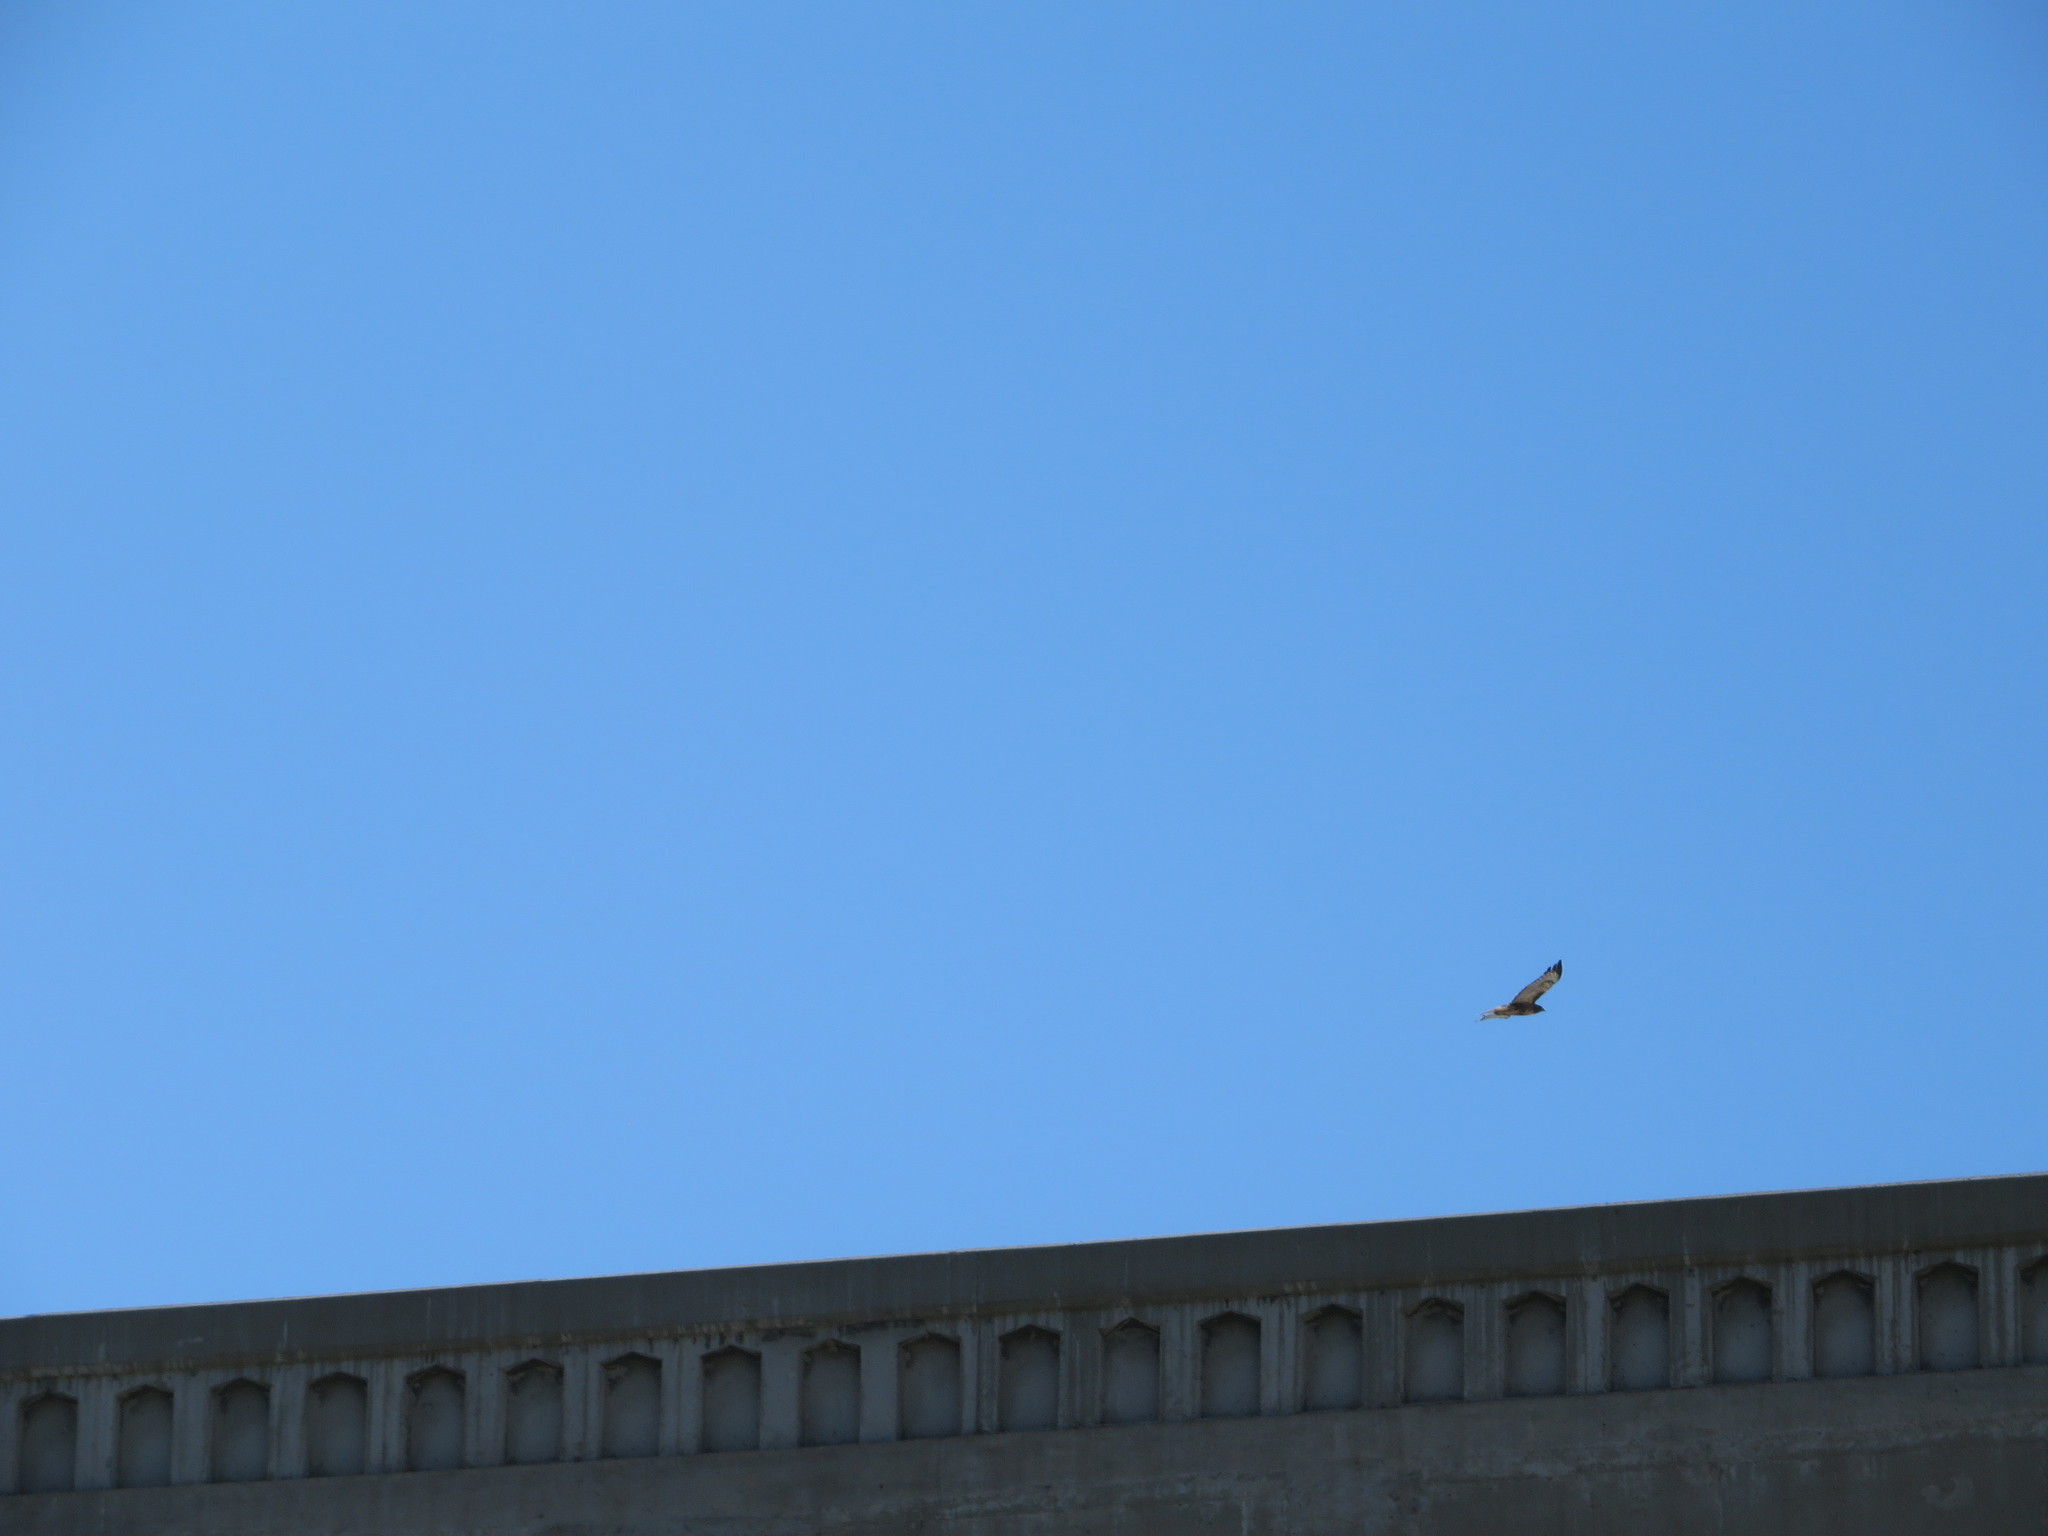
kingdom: Animalia
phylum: Chordata
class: Aves
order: Accipitriformes
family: Accipitridae
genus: Buteo
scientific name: Buteo jamaicensis
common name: Red-tailed hawk
